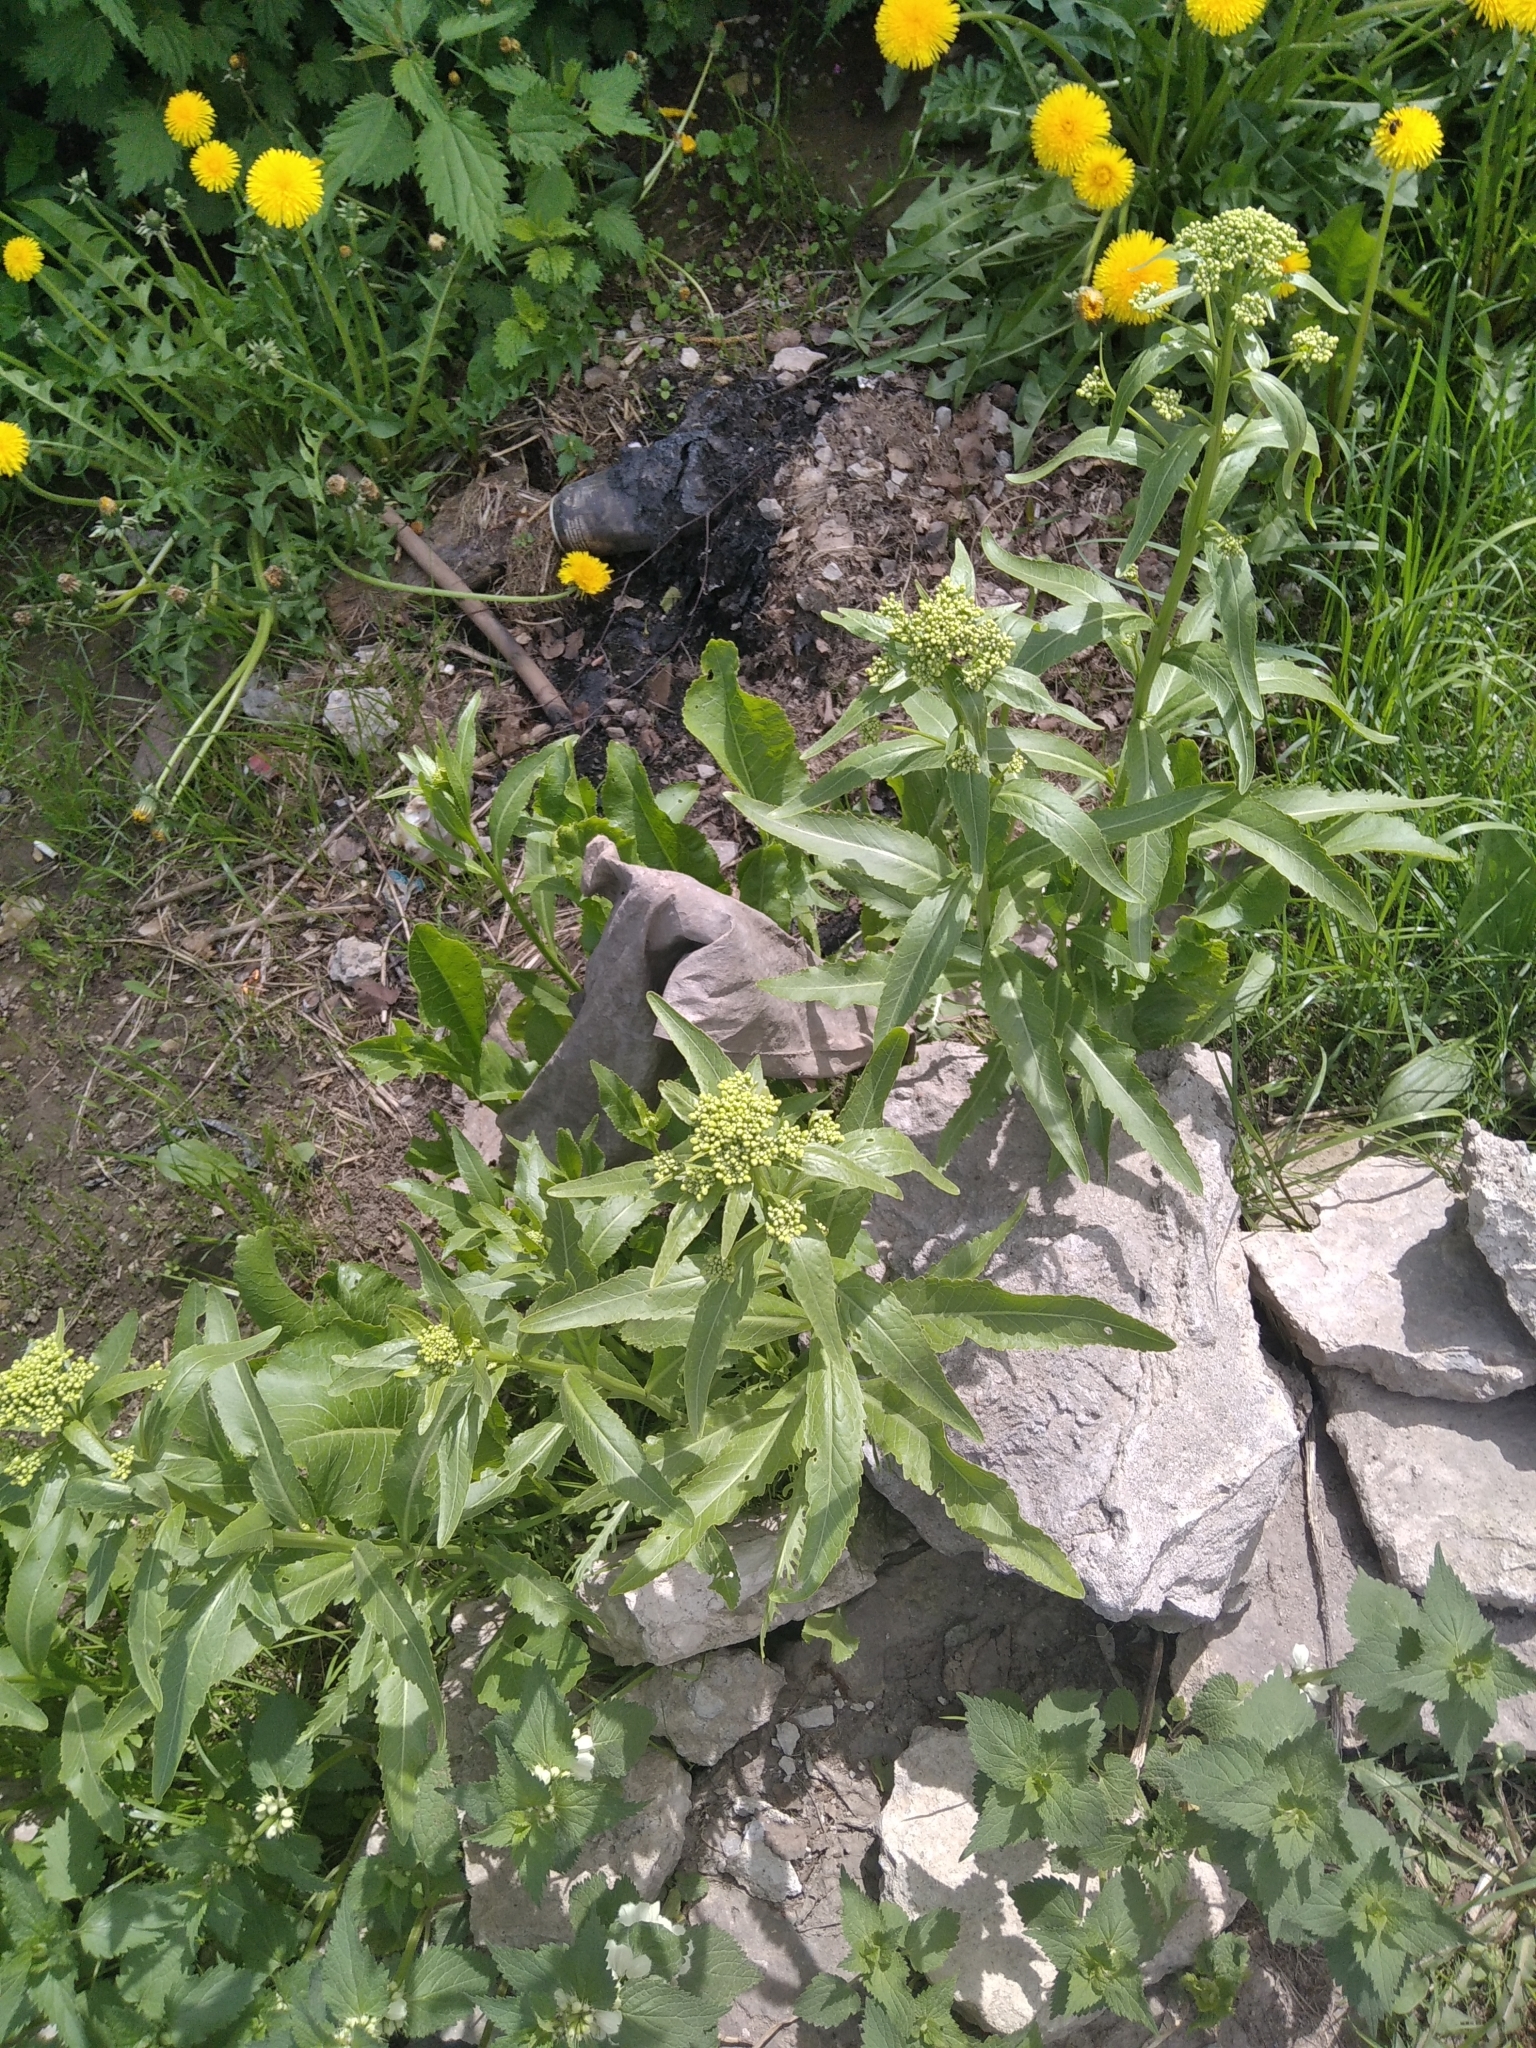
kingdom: Plantae
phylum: Tracheophyta
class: Magnoliopsida
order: Brassicales
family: Brassicaceae
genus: Armoracia
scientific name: Armoracia rusticana
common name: Horseradish
